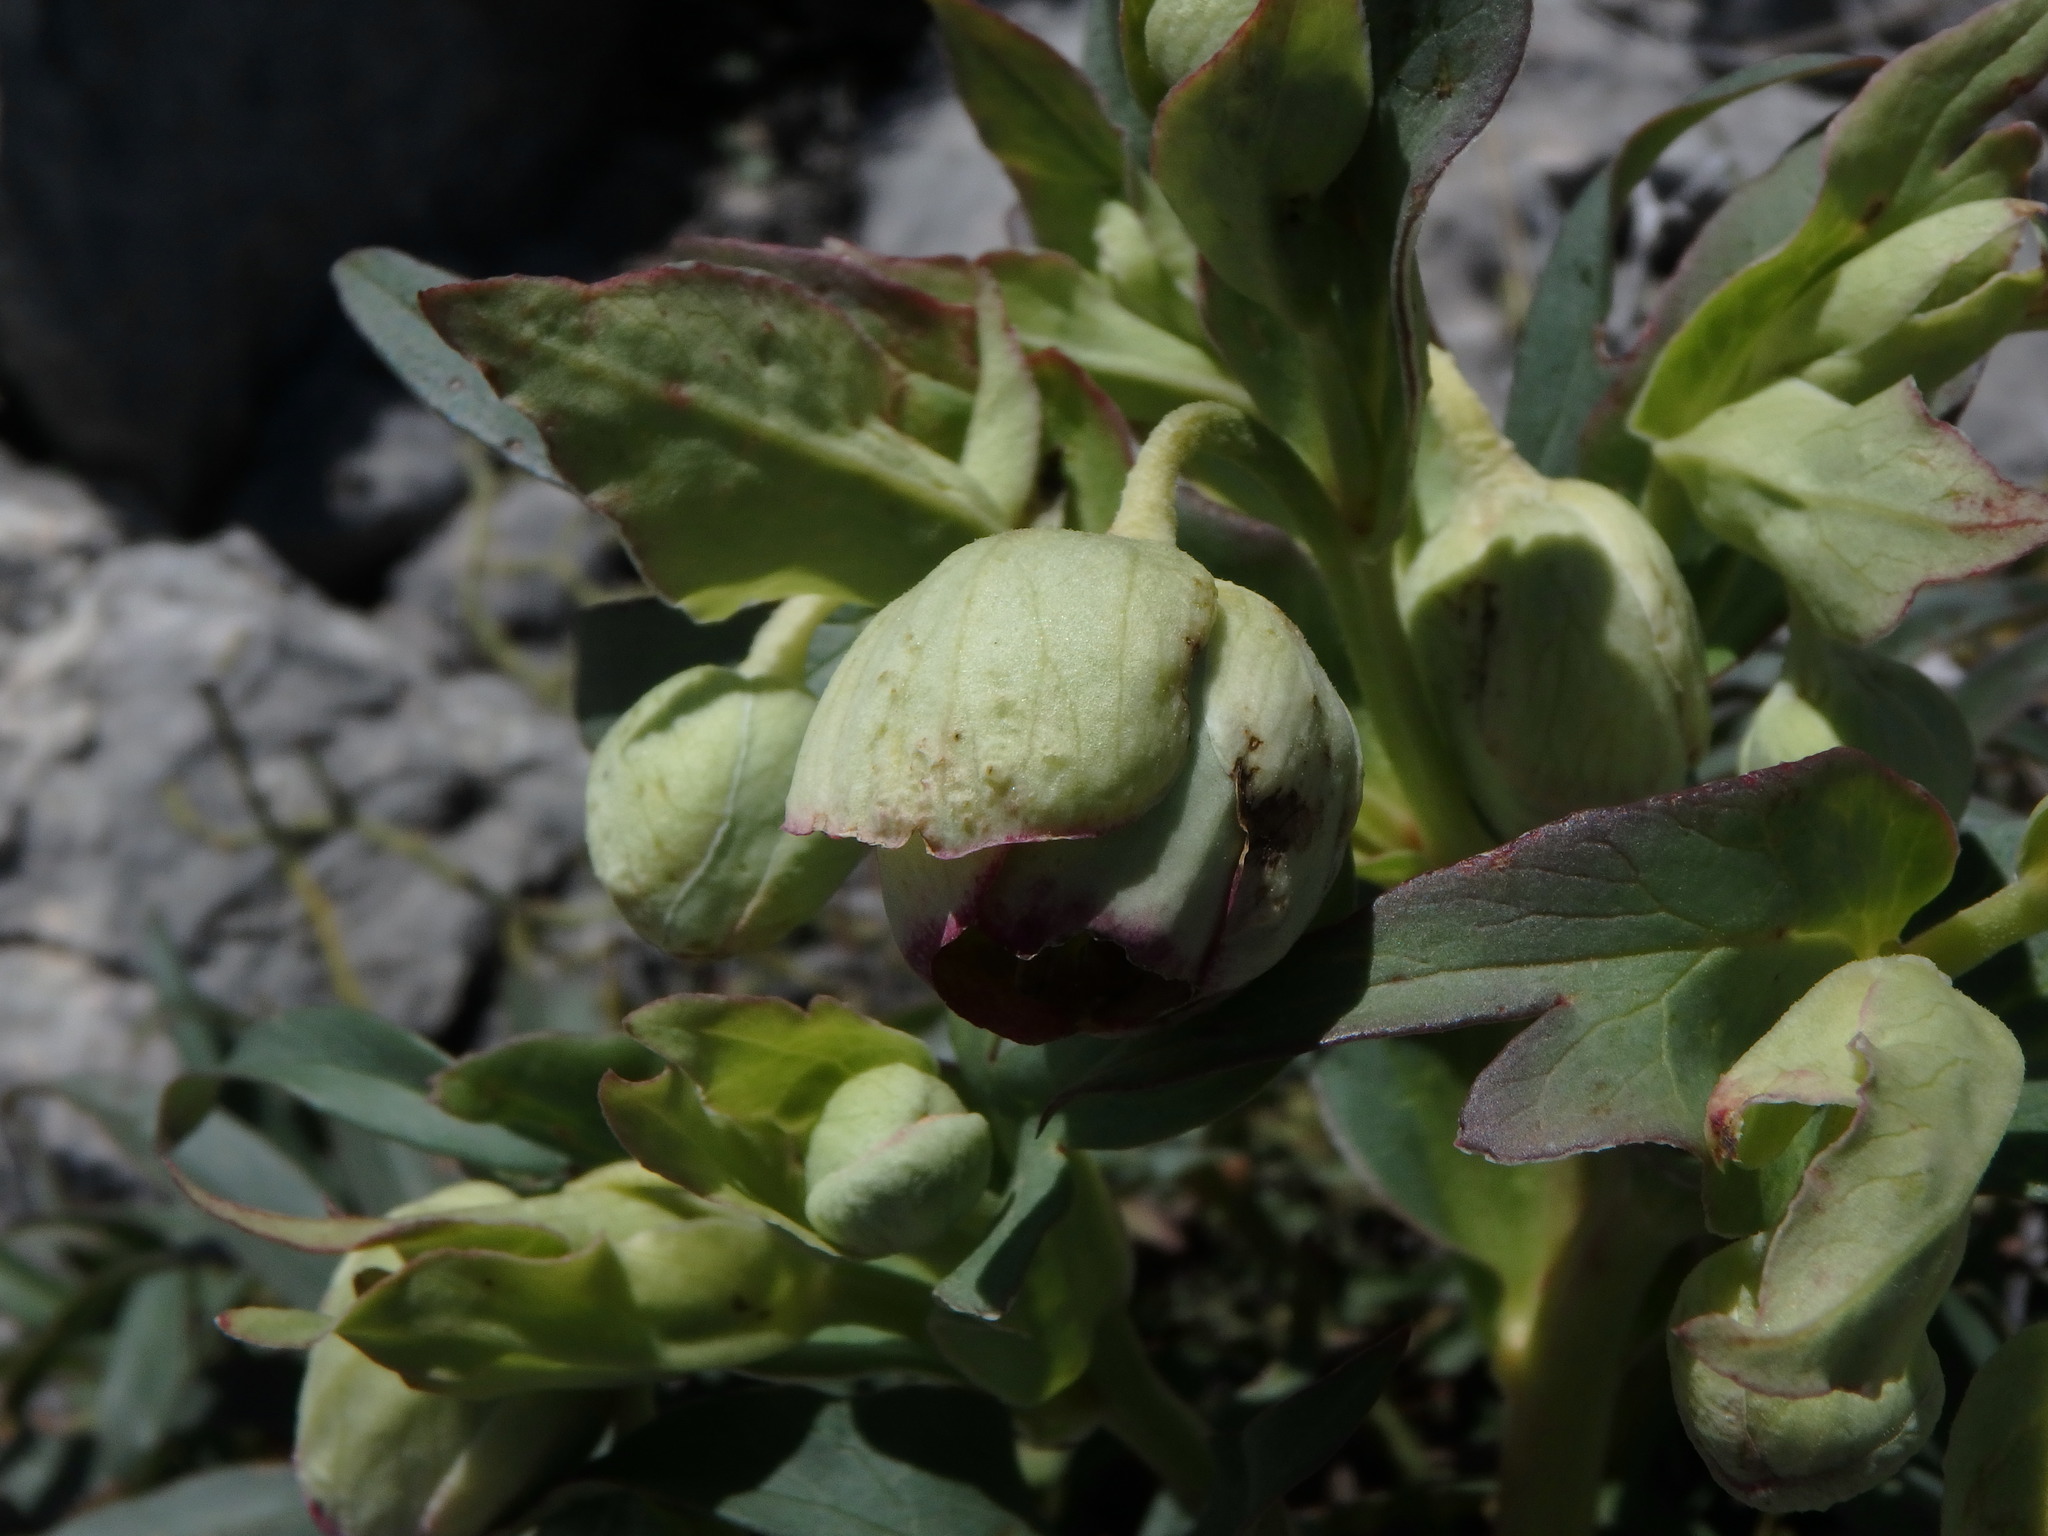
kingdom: Plantae
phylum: Tracheophyta
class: Magnoliopsida
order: Ranunculales
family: Ranunculaceae
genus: Helleborus
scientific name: Helleborus foetidus
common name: Stinking hellebore
